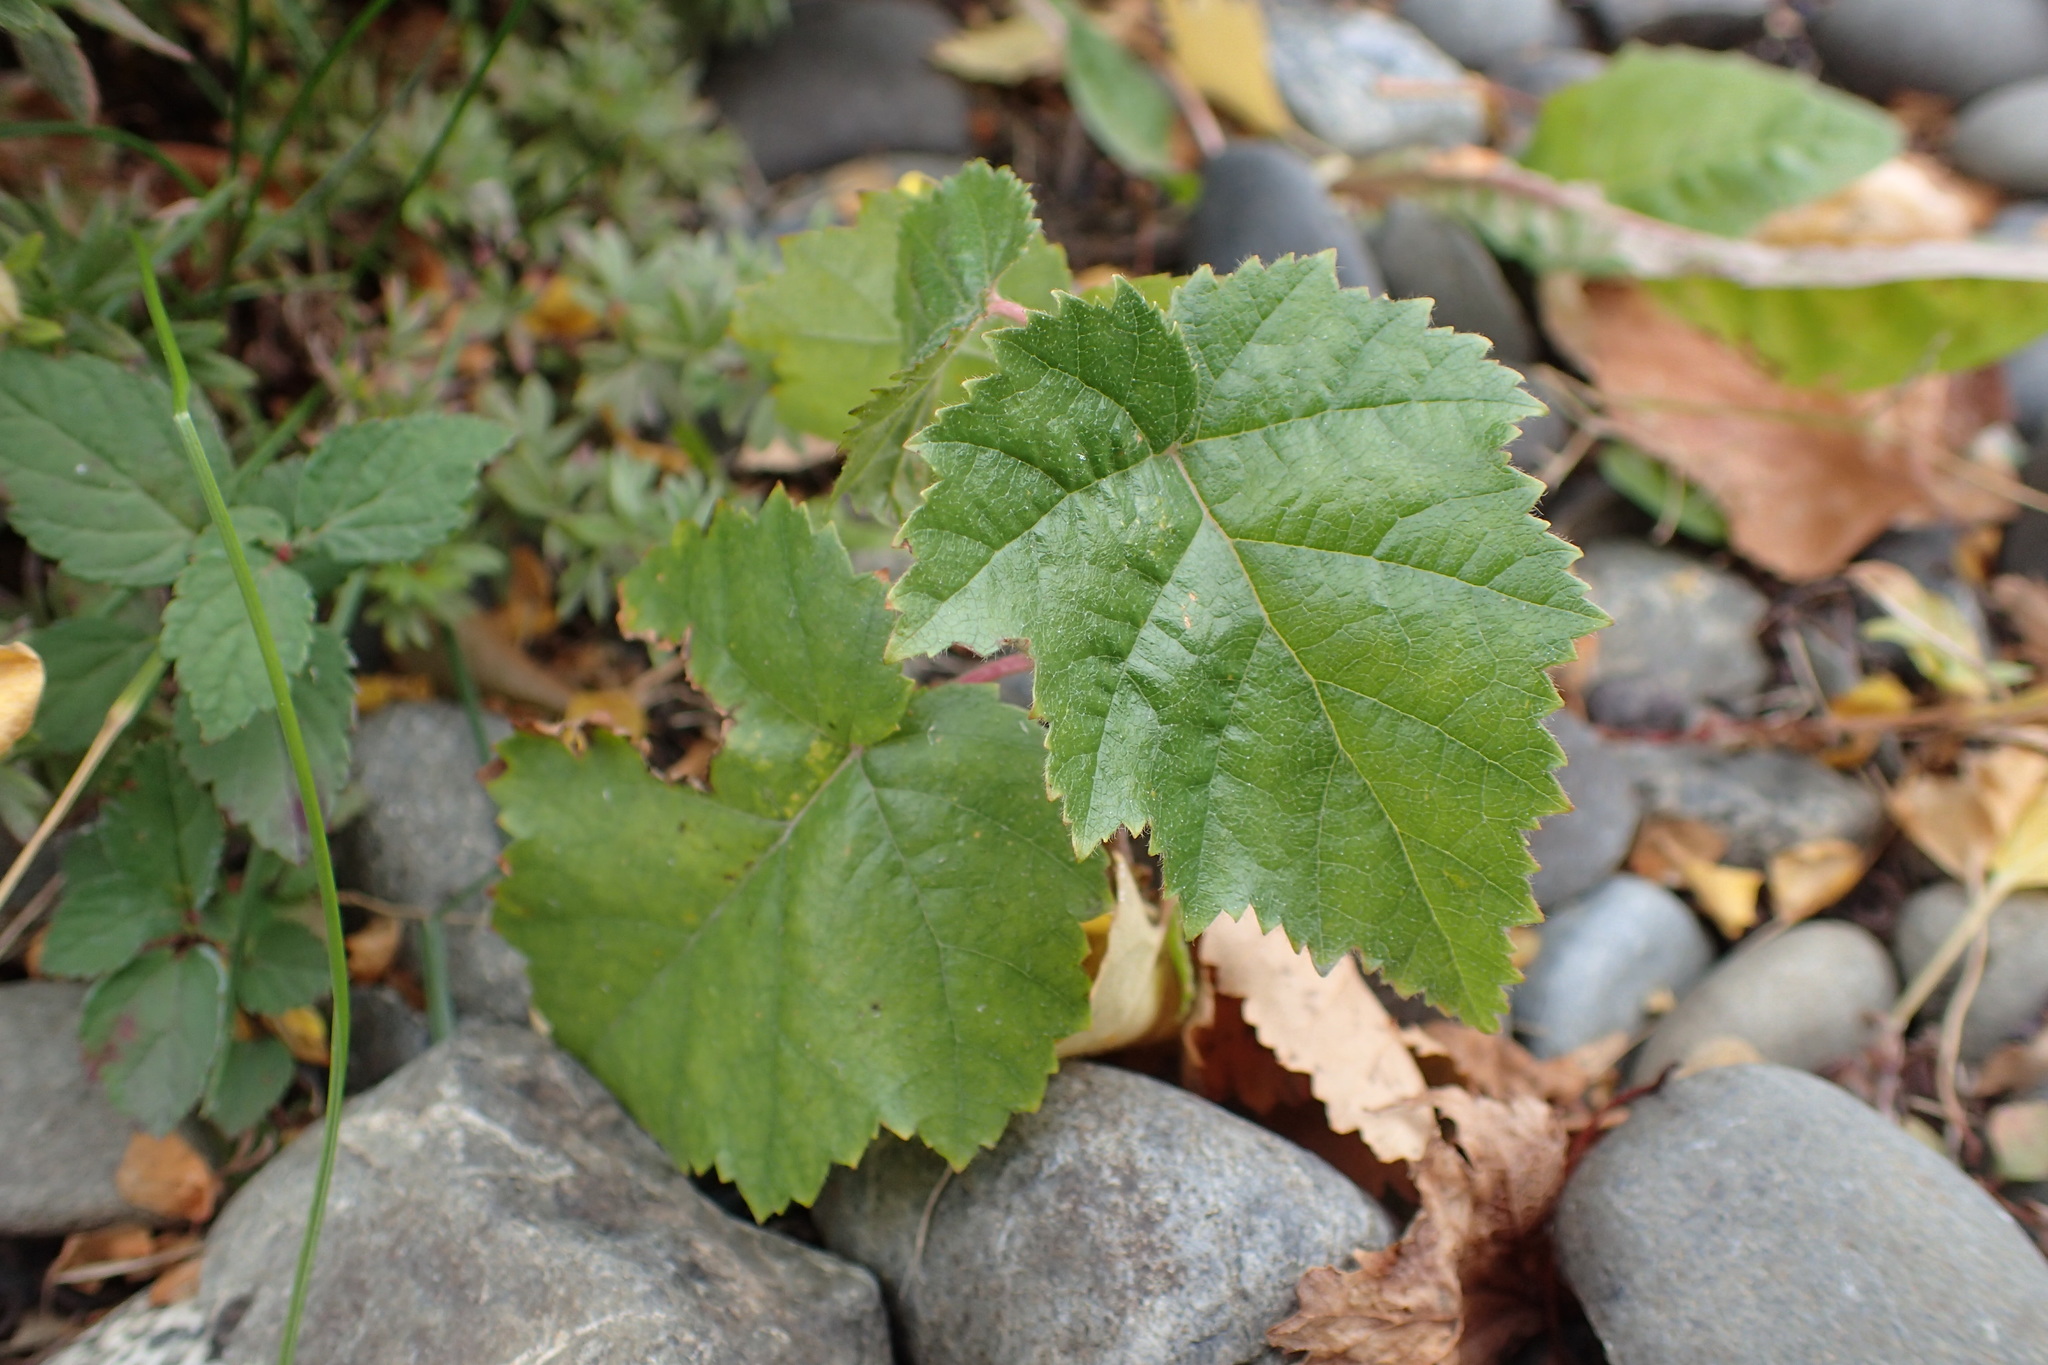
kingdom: Plantae
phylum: Tracheophyta
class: Magnoliopsida
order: Fagales
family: Betulaceae
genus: Betula
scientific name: Betula pendula
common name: Silver birch
